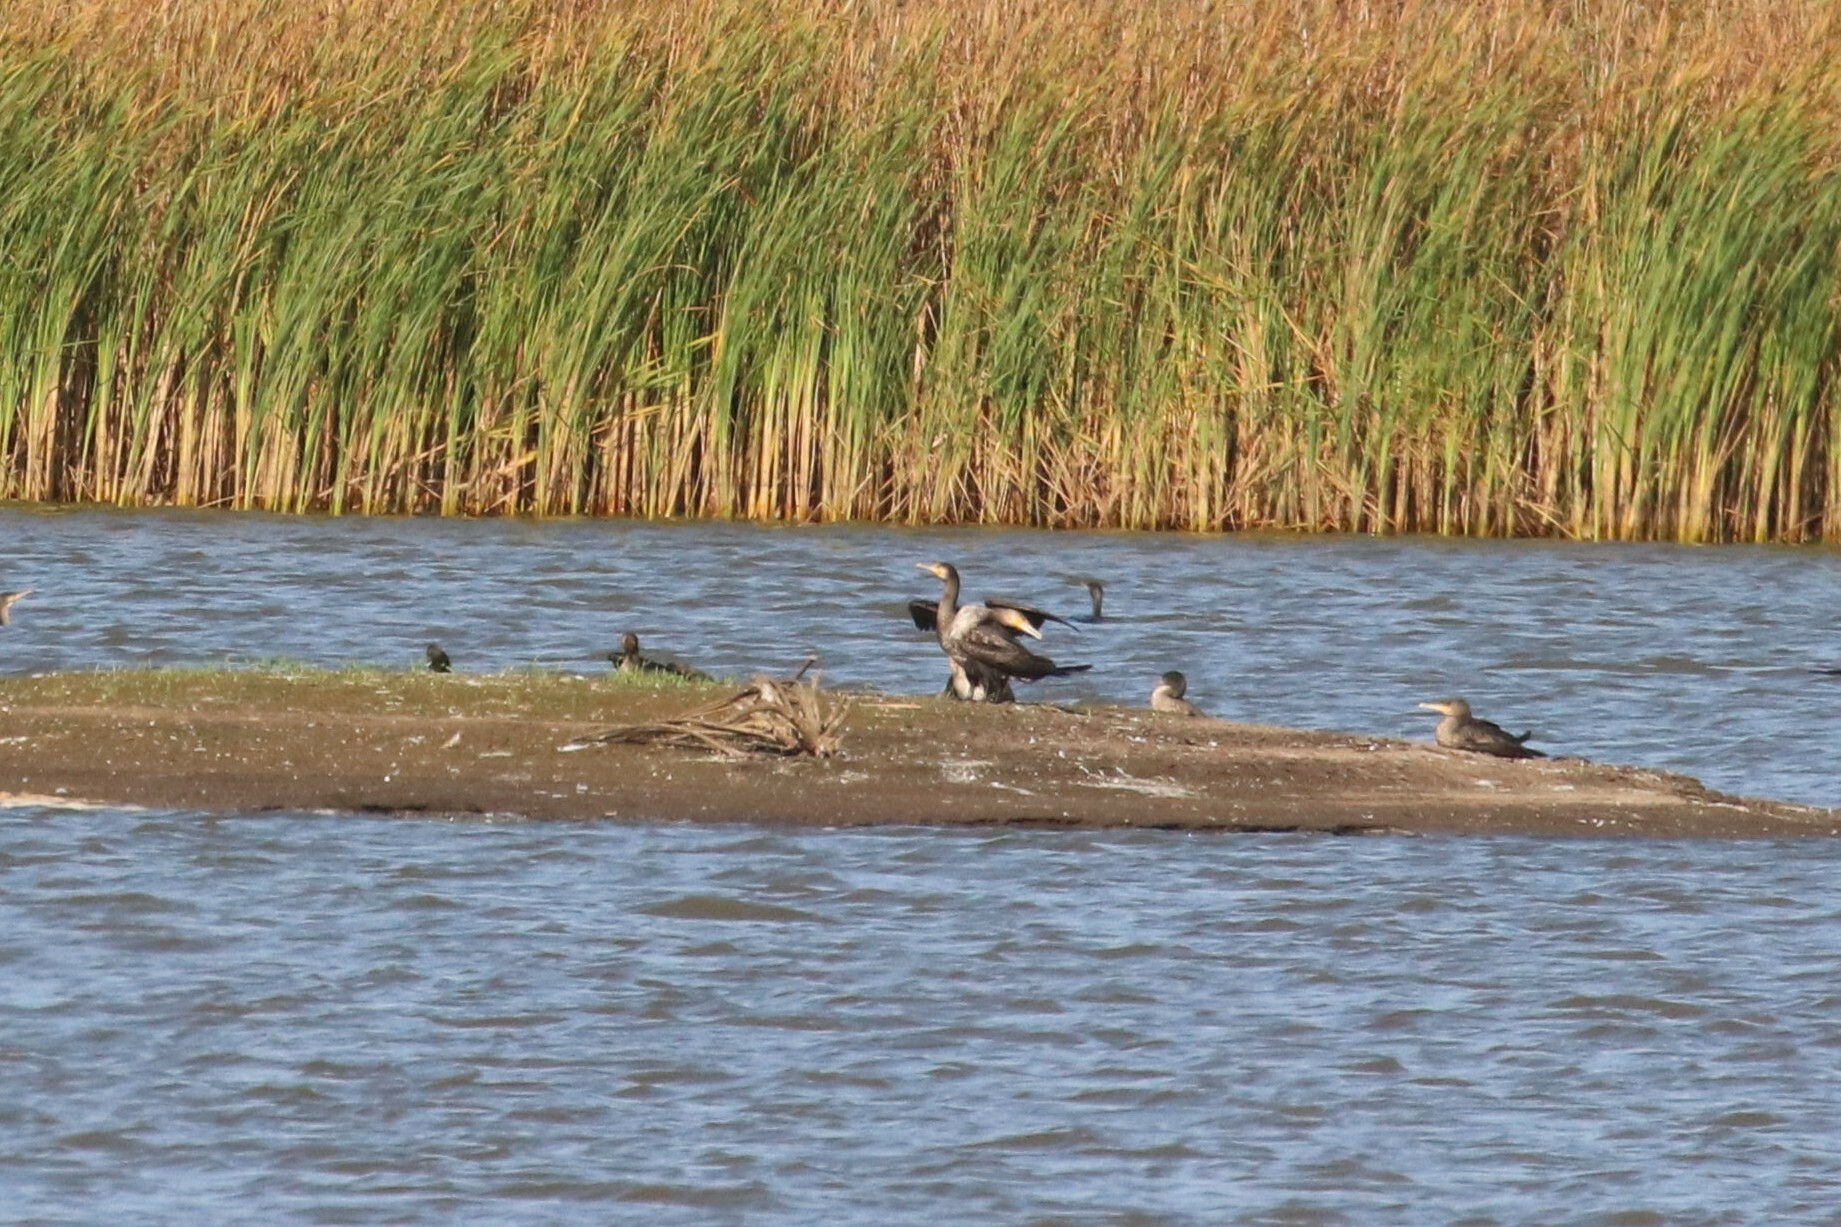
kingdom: Animalia
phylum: Chordata
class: Aves
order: Suliformes
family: Phalacrocoracidae
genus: Phalacrocorax
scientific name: Phalacrocorax carbo
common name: Great cormorant
